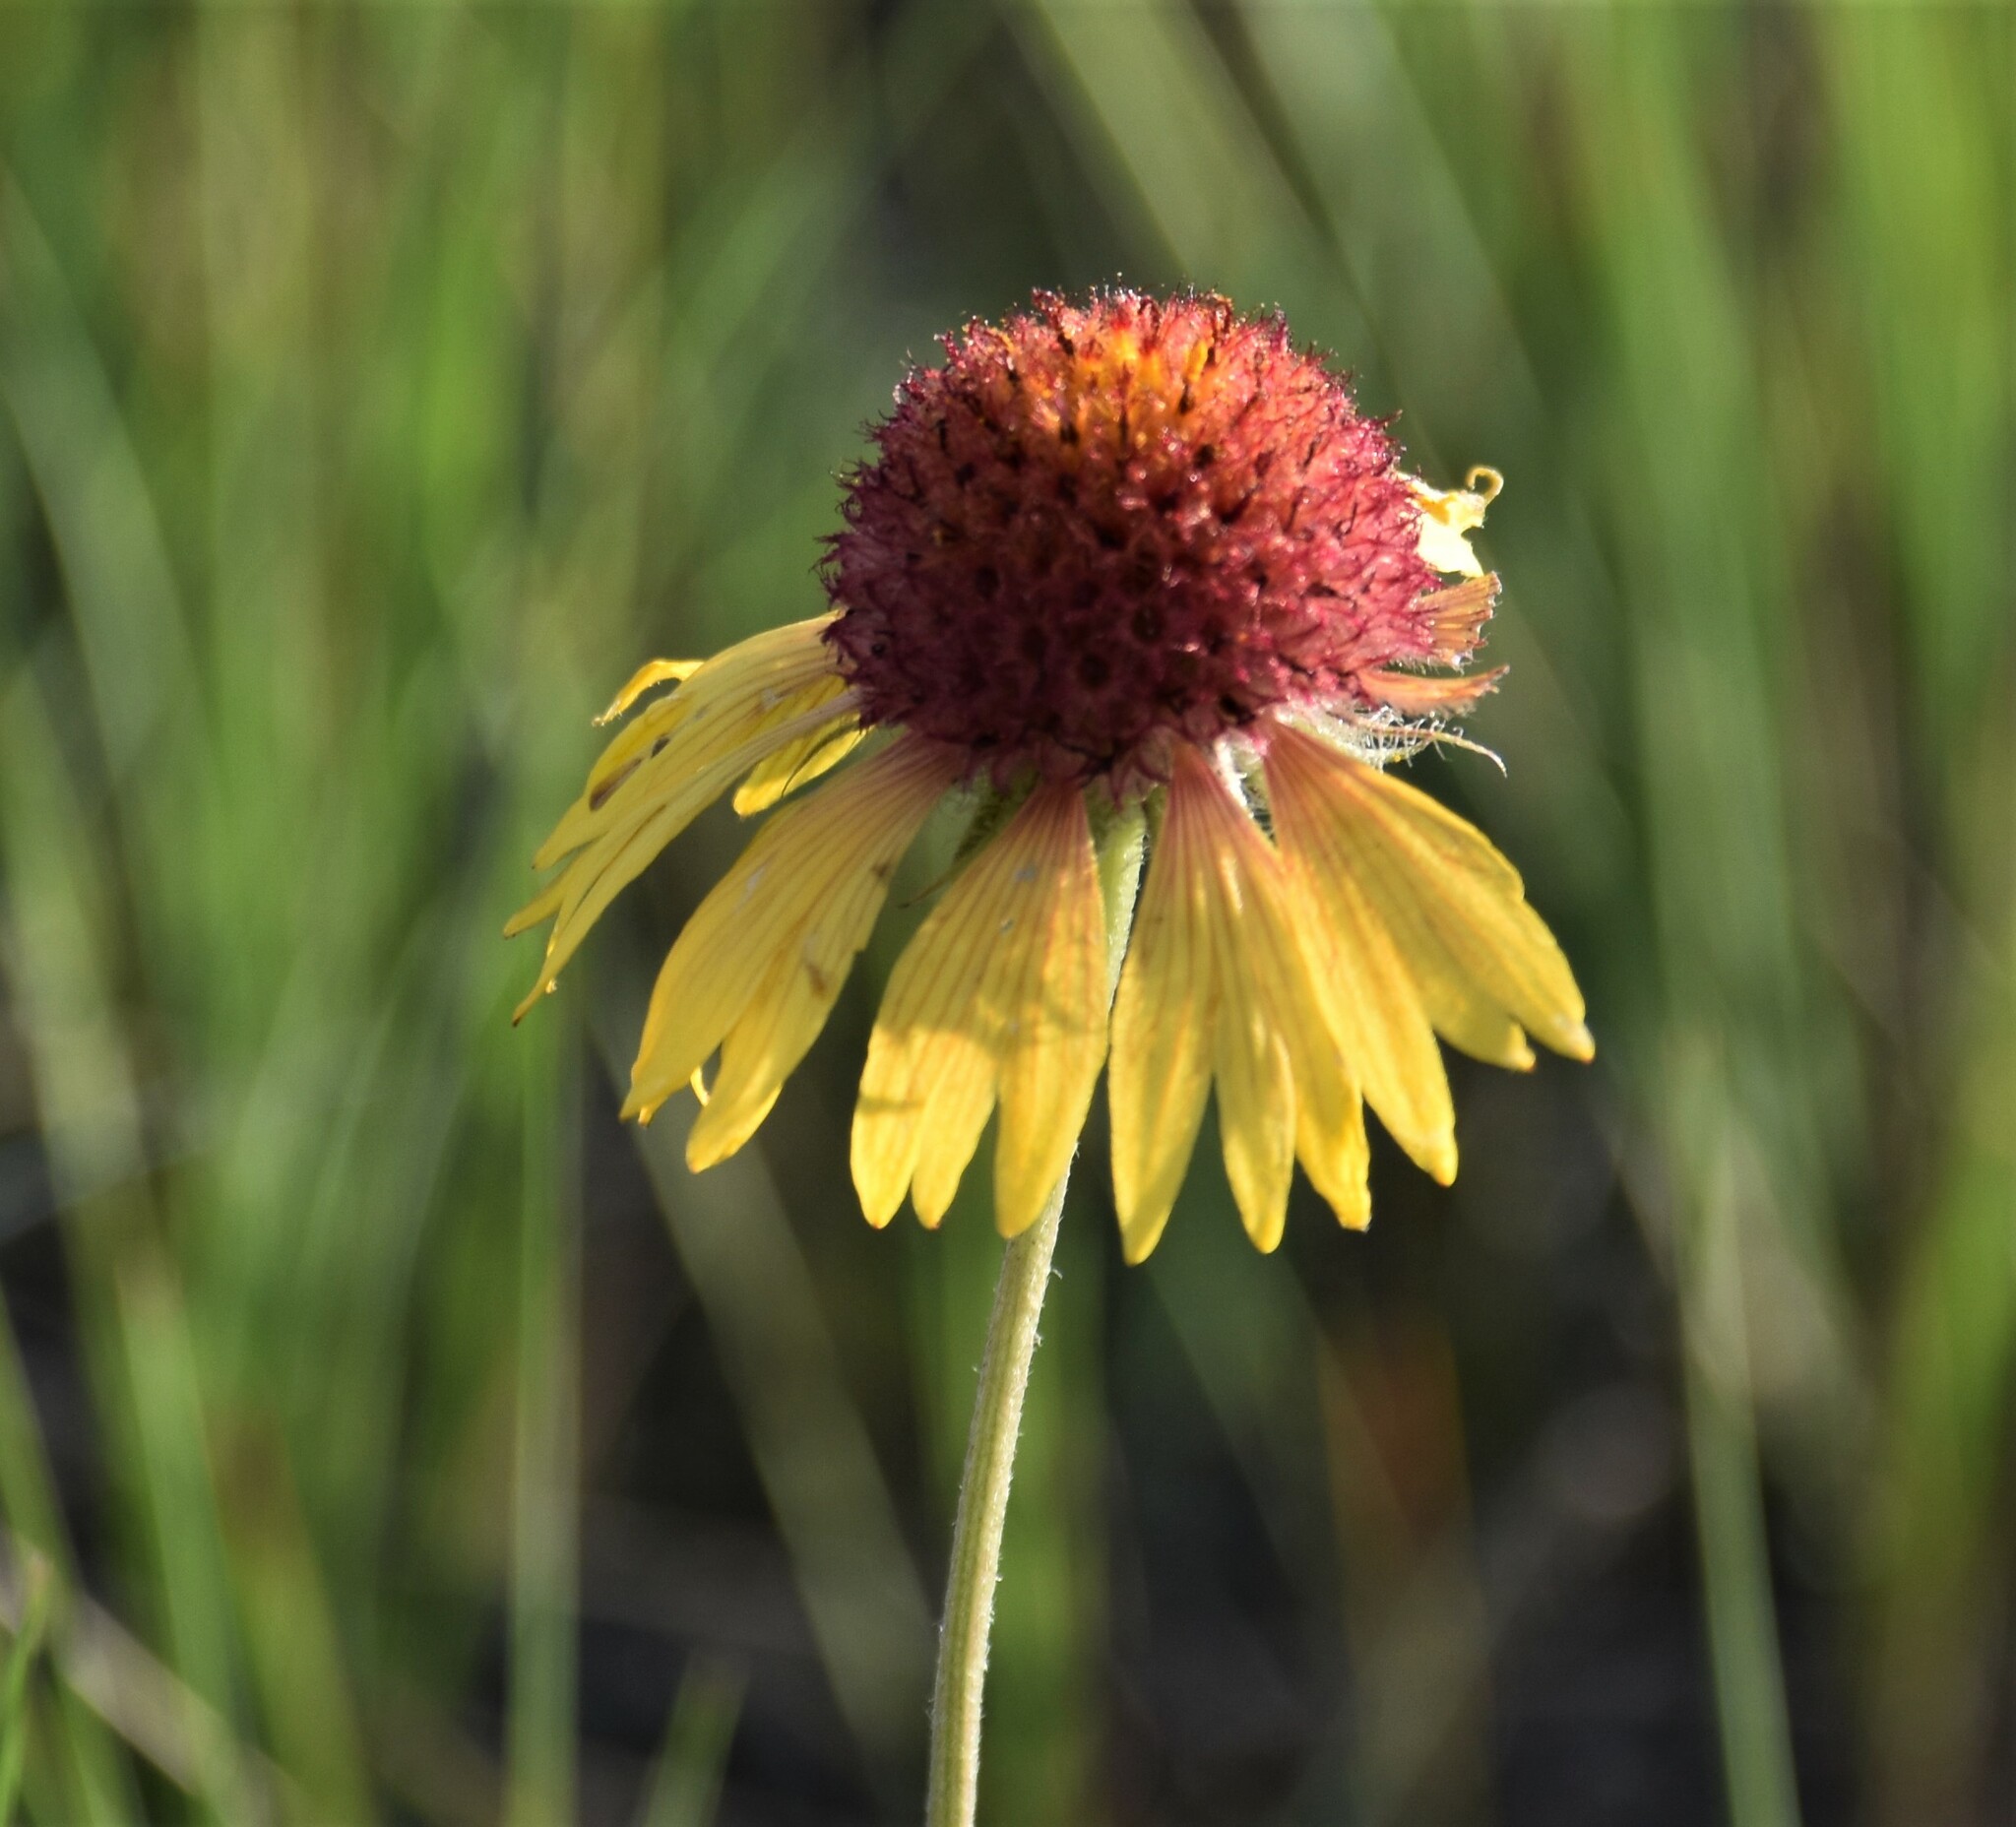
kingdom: Plantae
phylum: Tracheophyta
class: Magnoliopsida
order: Asterales
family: Asteraceae
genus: Gaillardia
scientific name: Gaillardia aristata
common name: Blanket-flower
